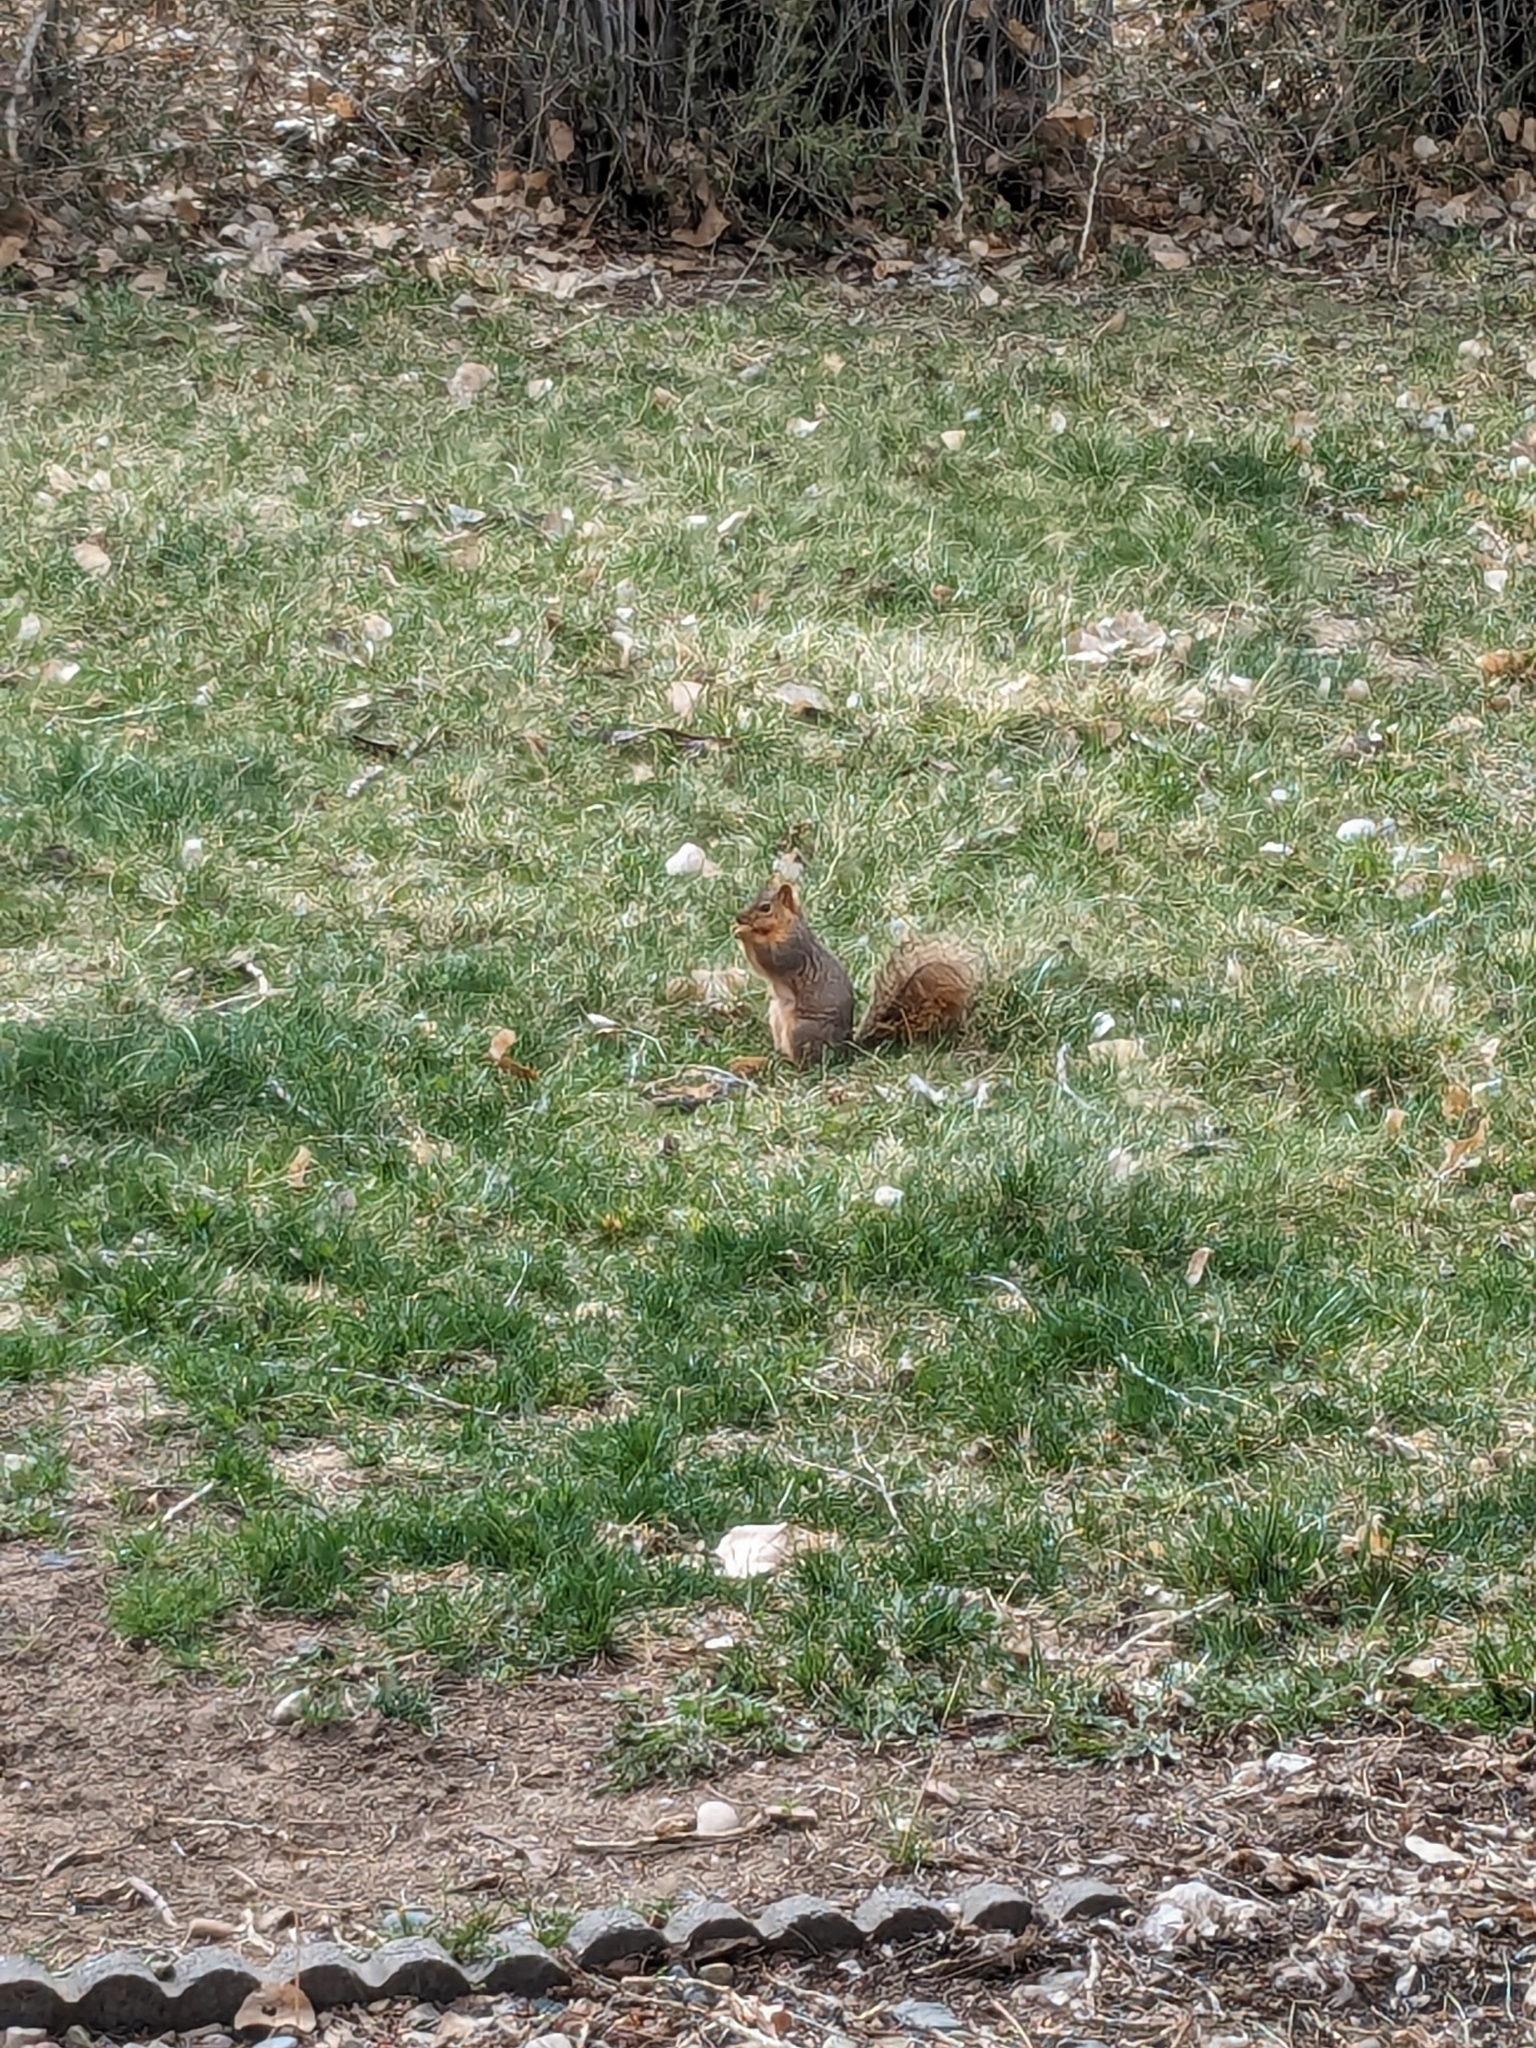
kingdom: Animalia
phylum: Chordata
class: Mammalia
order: Rodentia
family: Sciuridae
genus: Sciurus
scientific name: Sciurus niger
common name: Fox squirrel
